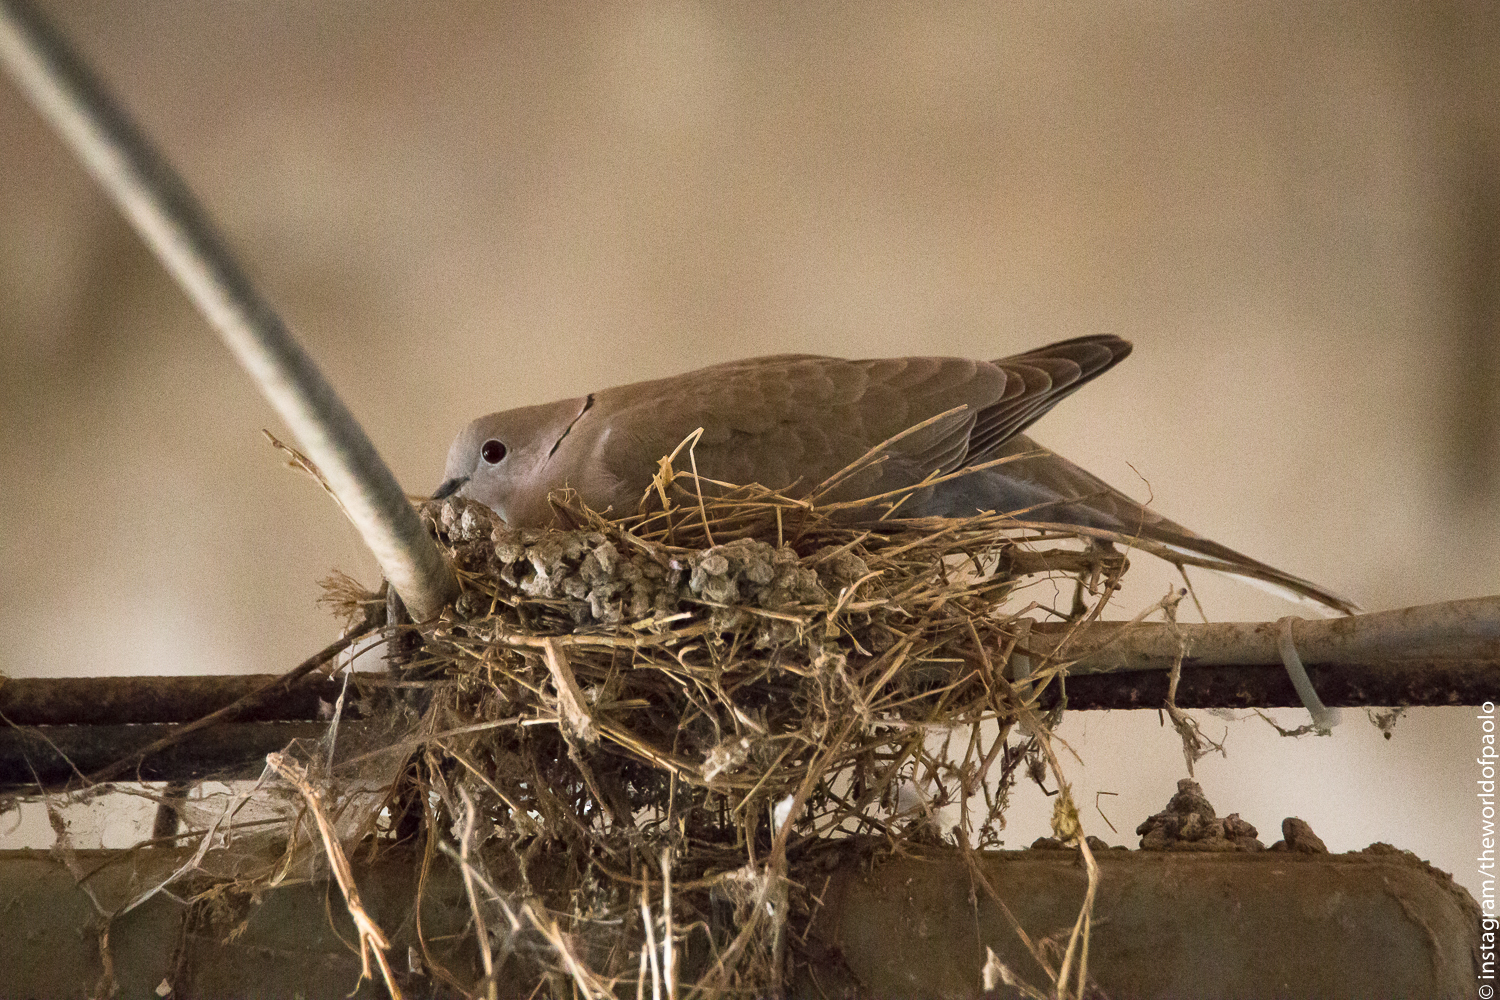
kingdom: Animalia
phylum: Chordata
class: Aves
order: Columbiformes
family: Columbidae
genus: Streptopelia
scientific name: Streptopelia decaocto
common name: Eurasian collared dove
